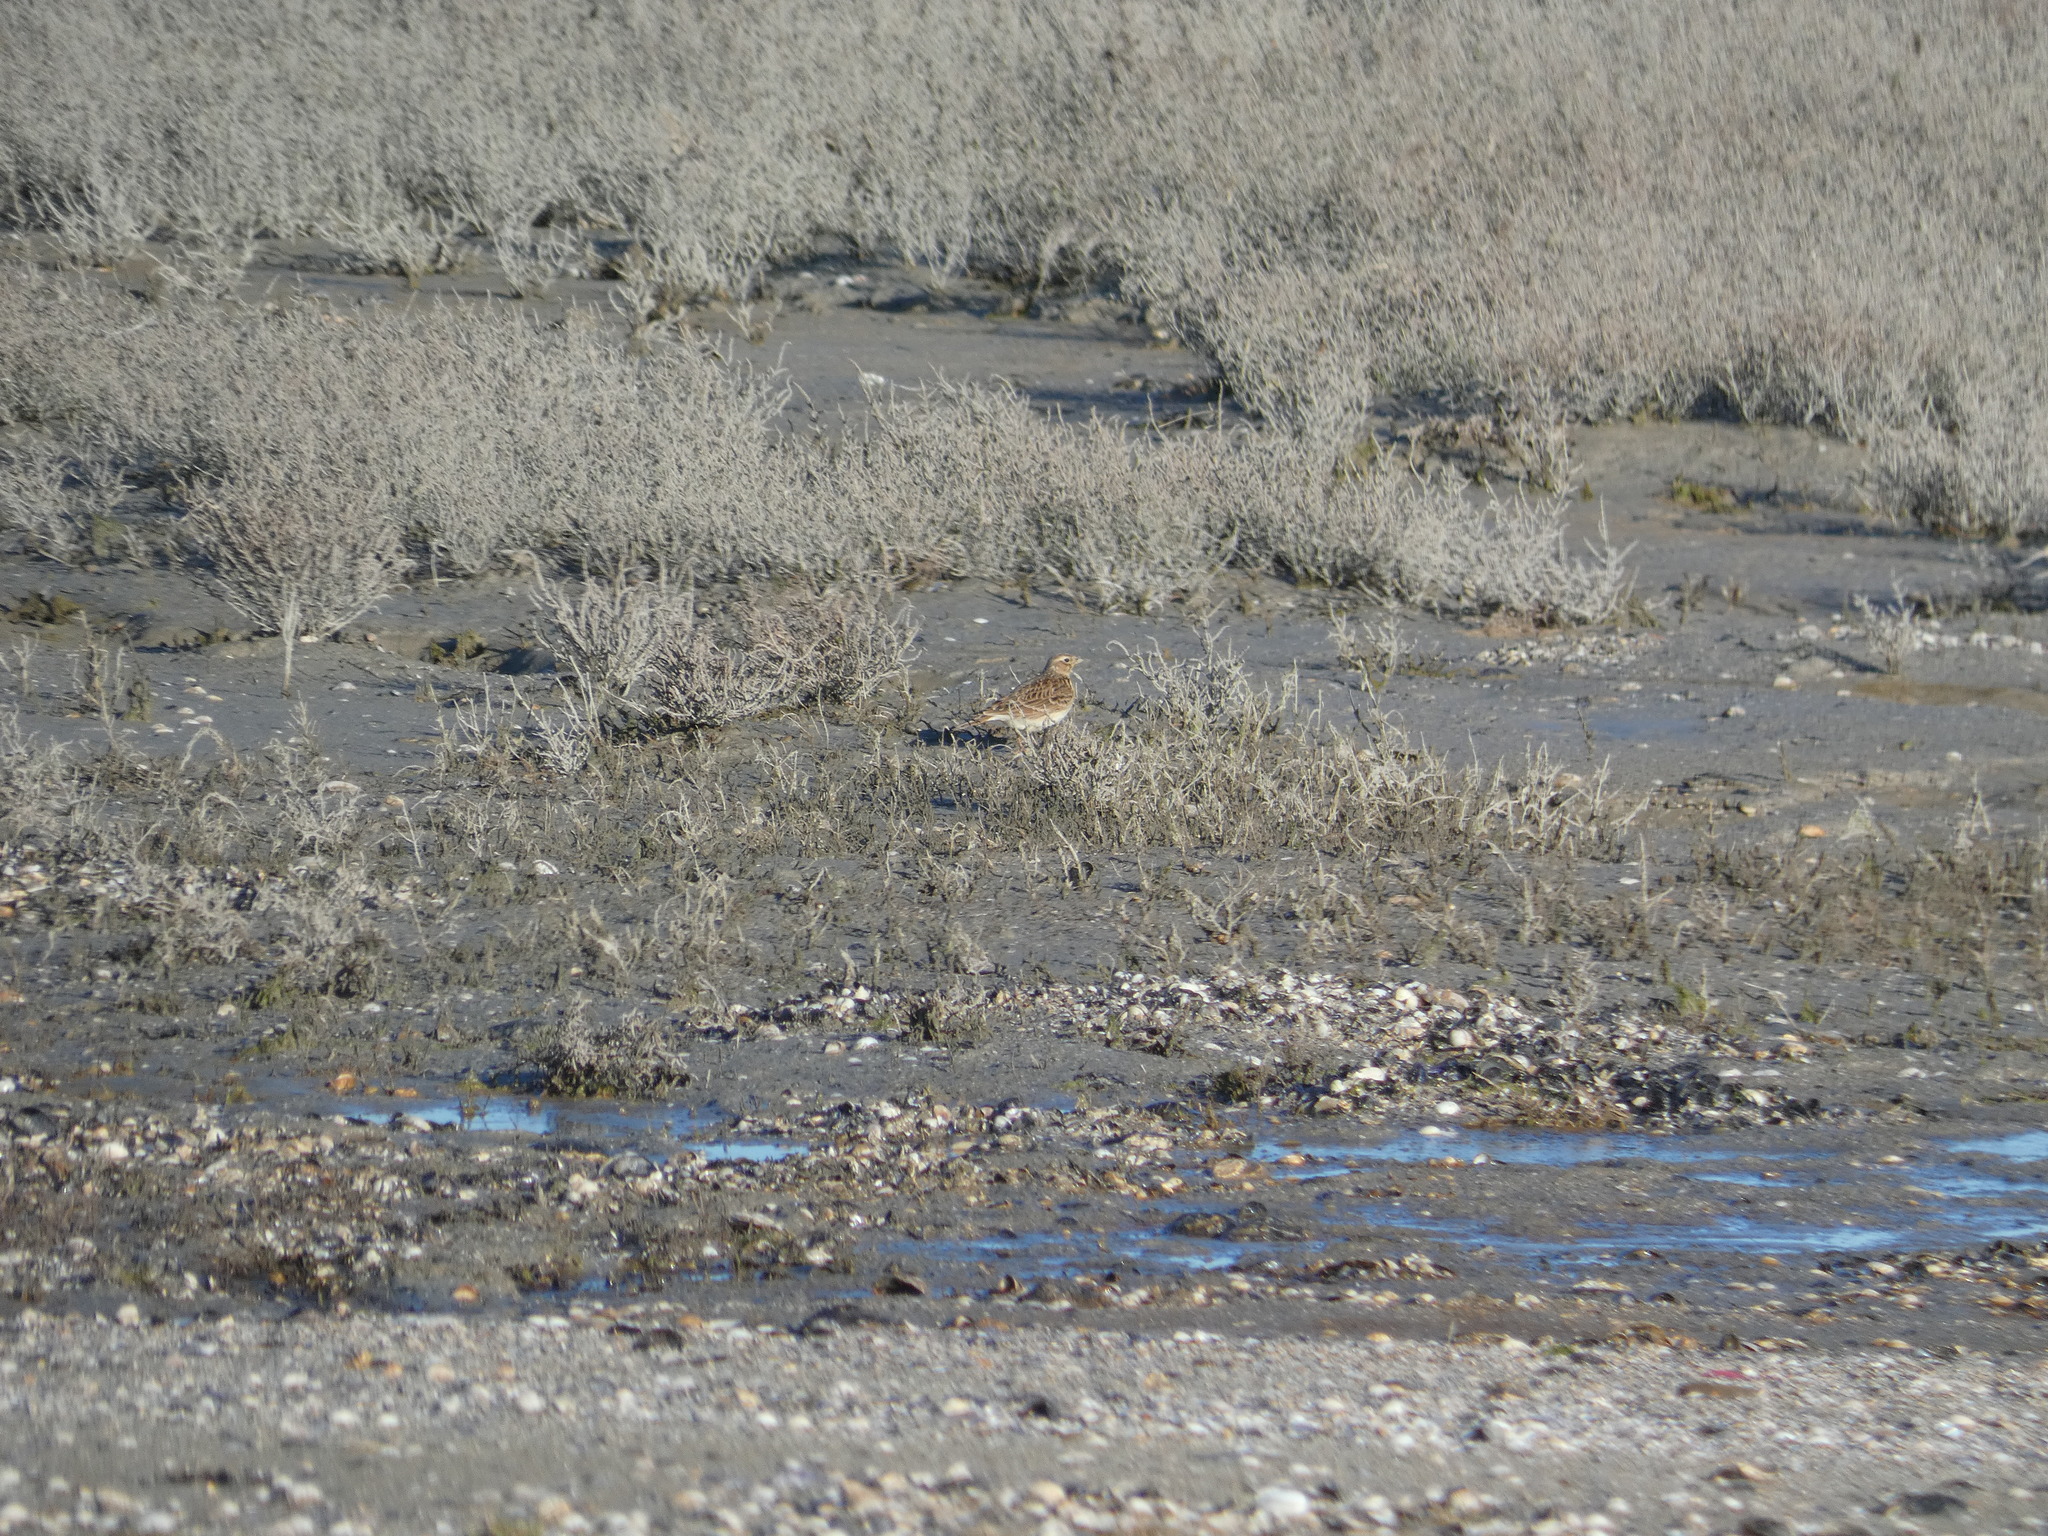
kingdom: Animalia
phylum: Chordata
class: Aves
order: Passeriformes
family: Alaudidae
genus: Alauda
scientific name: Alauda arvensis
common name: Eurasian skylark
